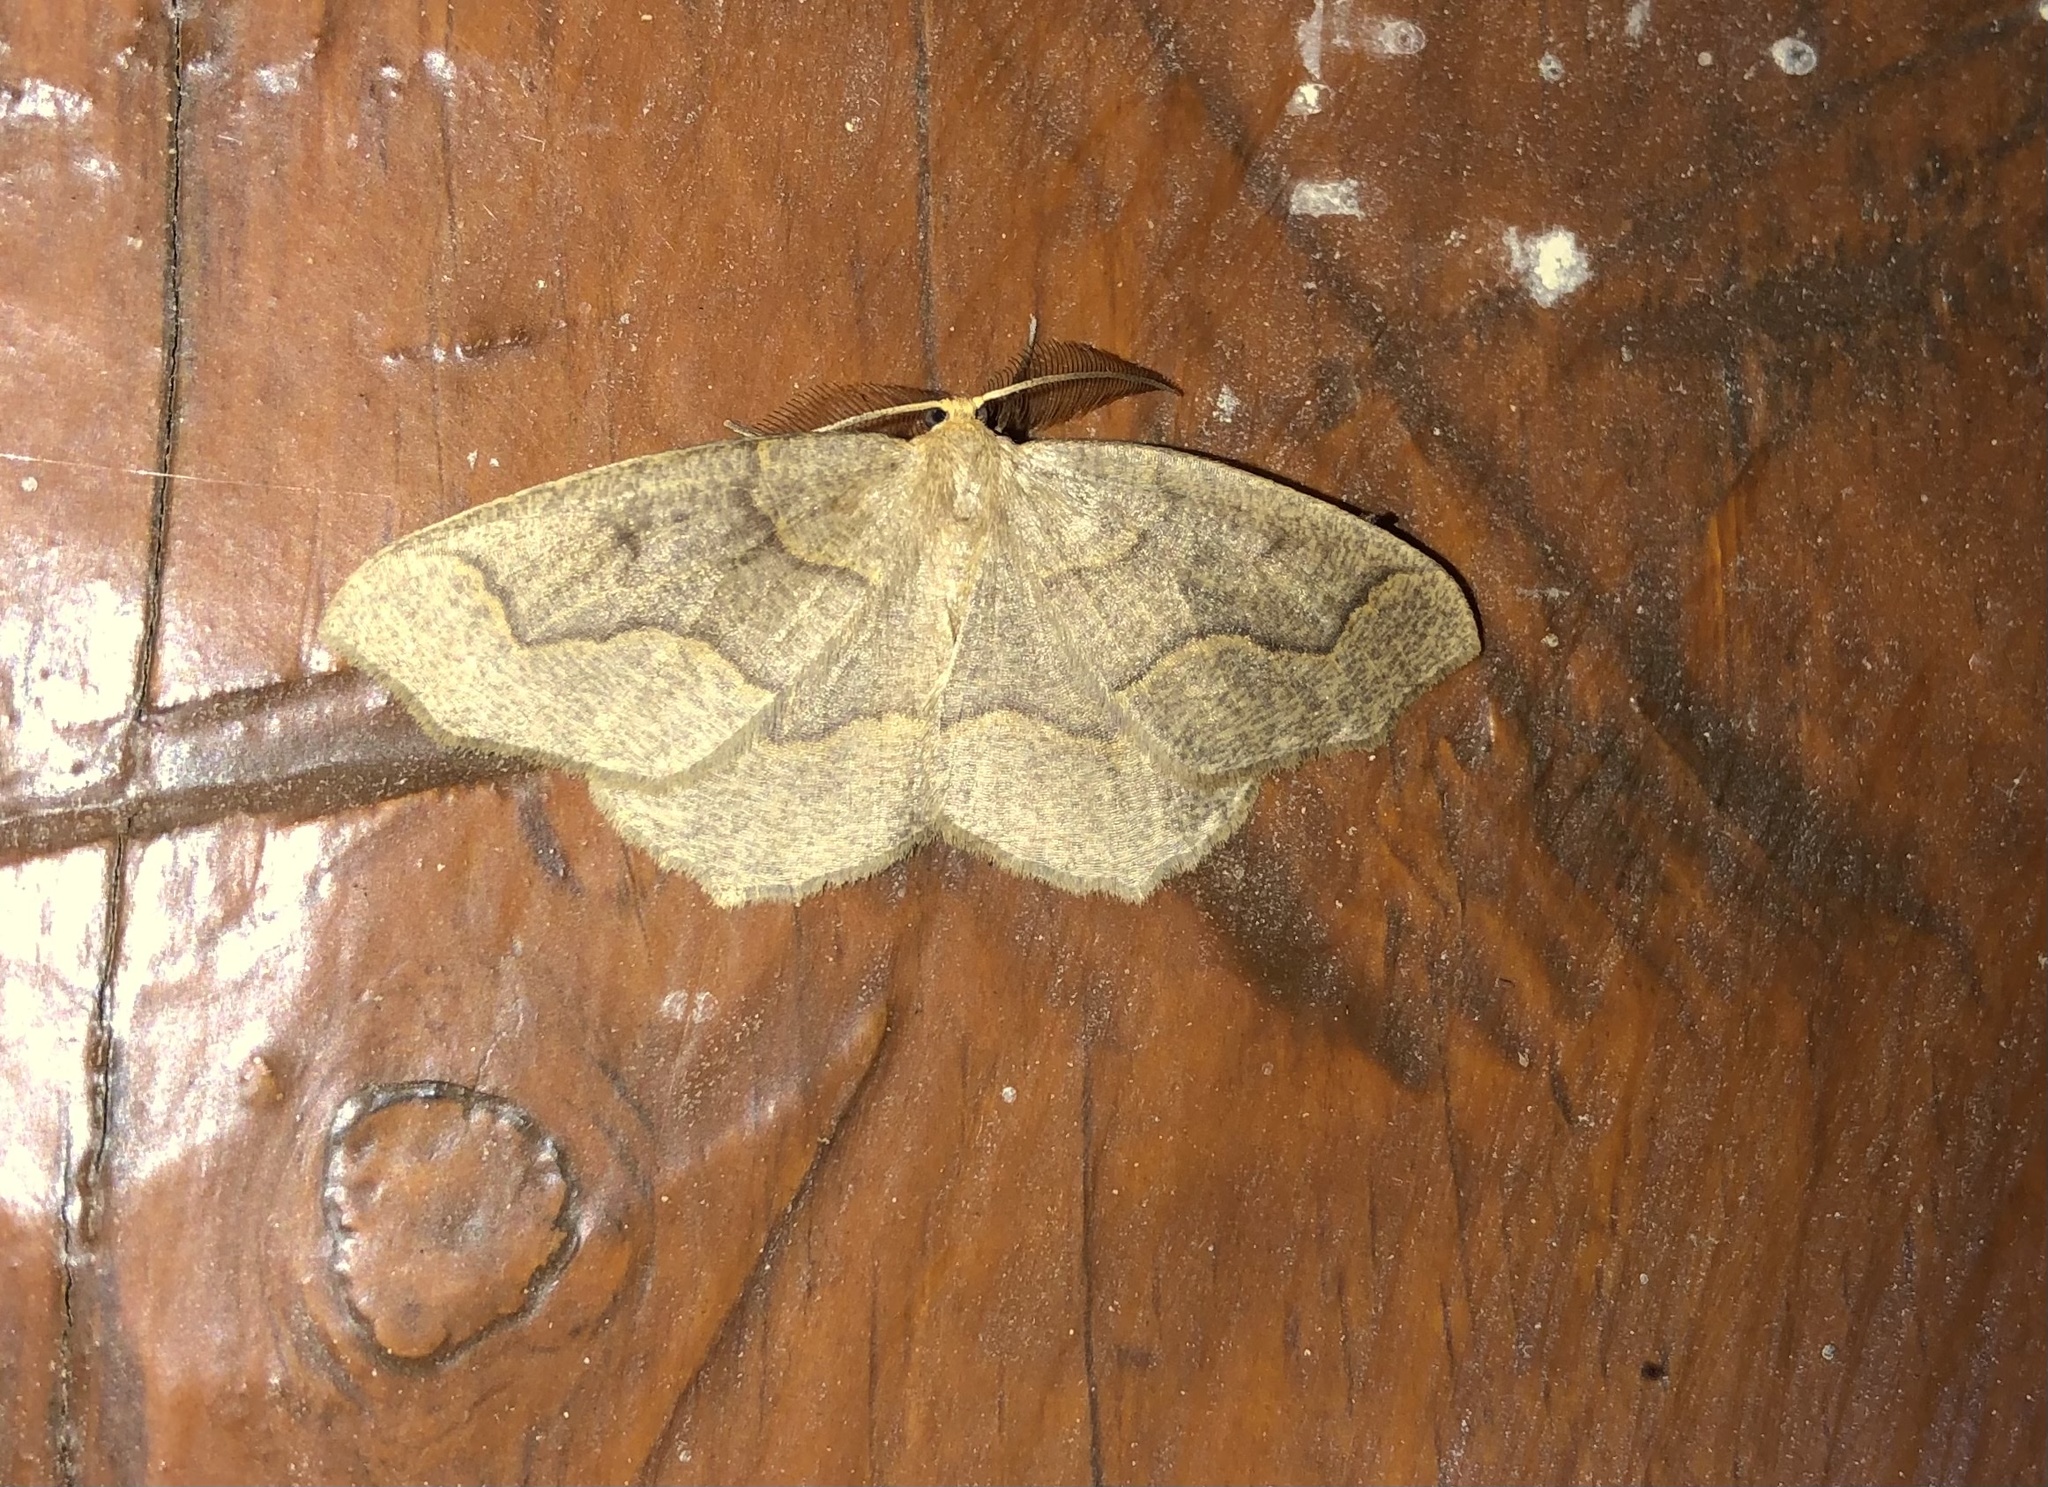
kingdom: Animalia
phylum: Arthropoda
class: Insecta
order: Lepidoptera
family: Geometridae
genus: Lambdina
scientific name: Lambdina fiscellaria
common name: Hemlock looper
